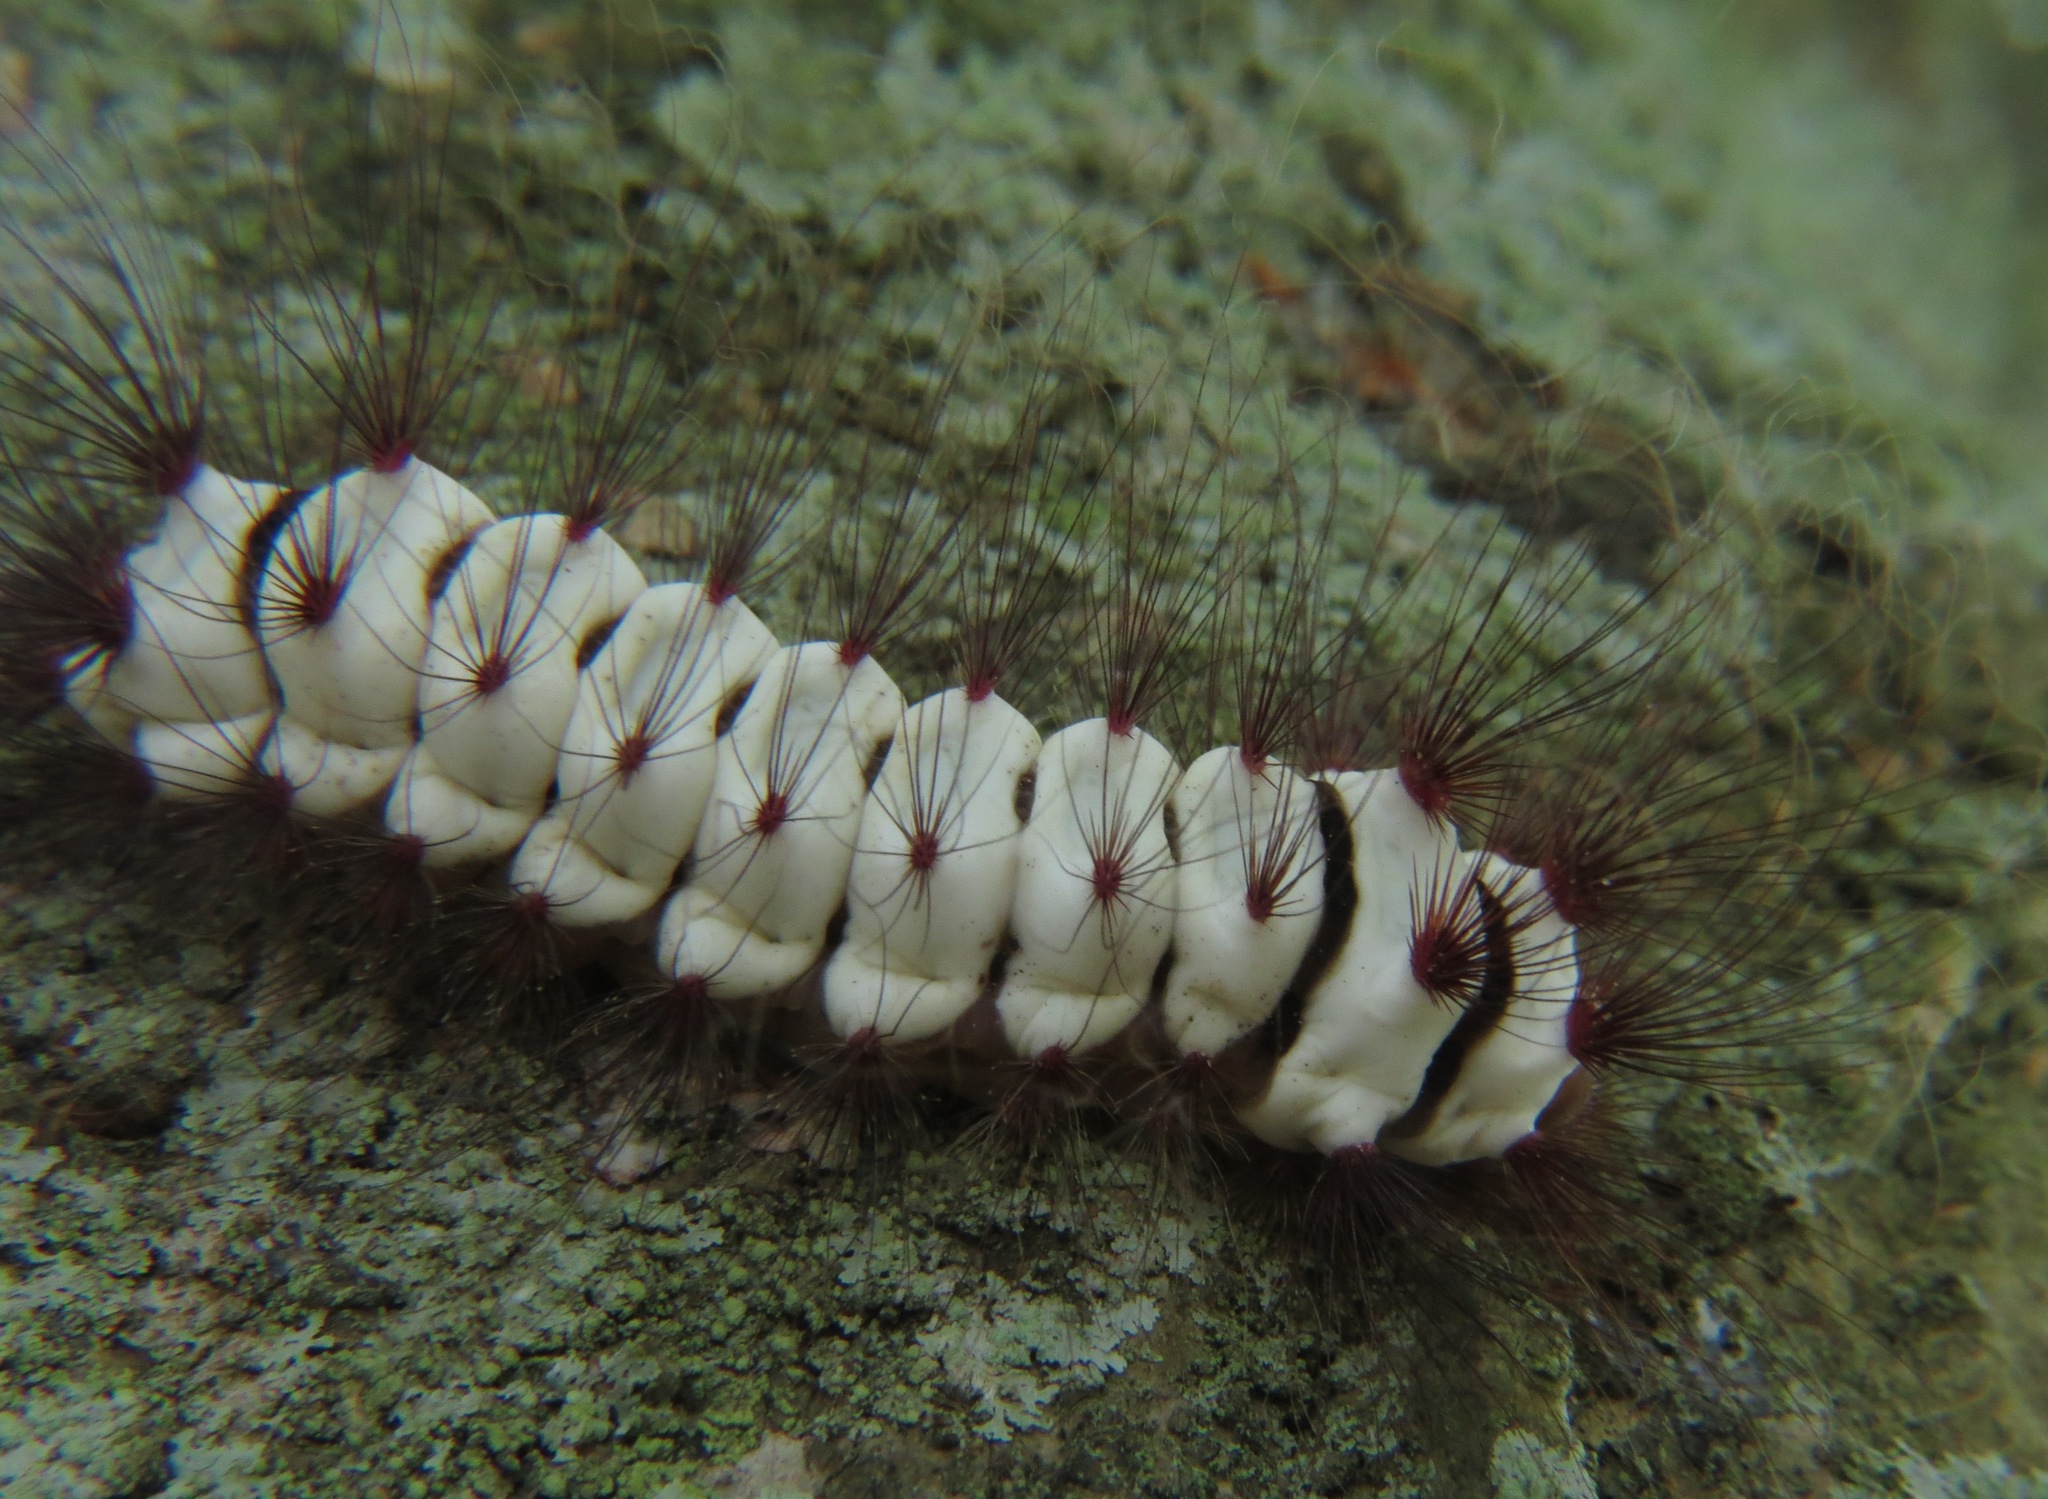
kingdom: Animalia
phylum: Arthropoda
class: Insecta
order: Lepidoptera
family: Megalopygidae
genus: Megalopyge
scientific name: Megalopyge lanata
